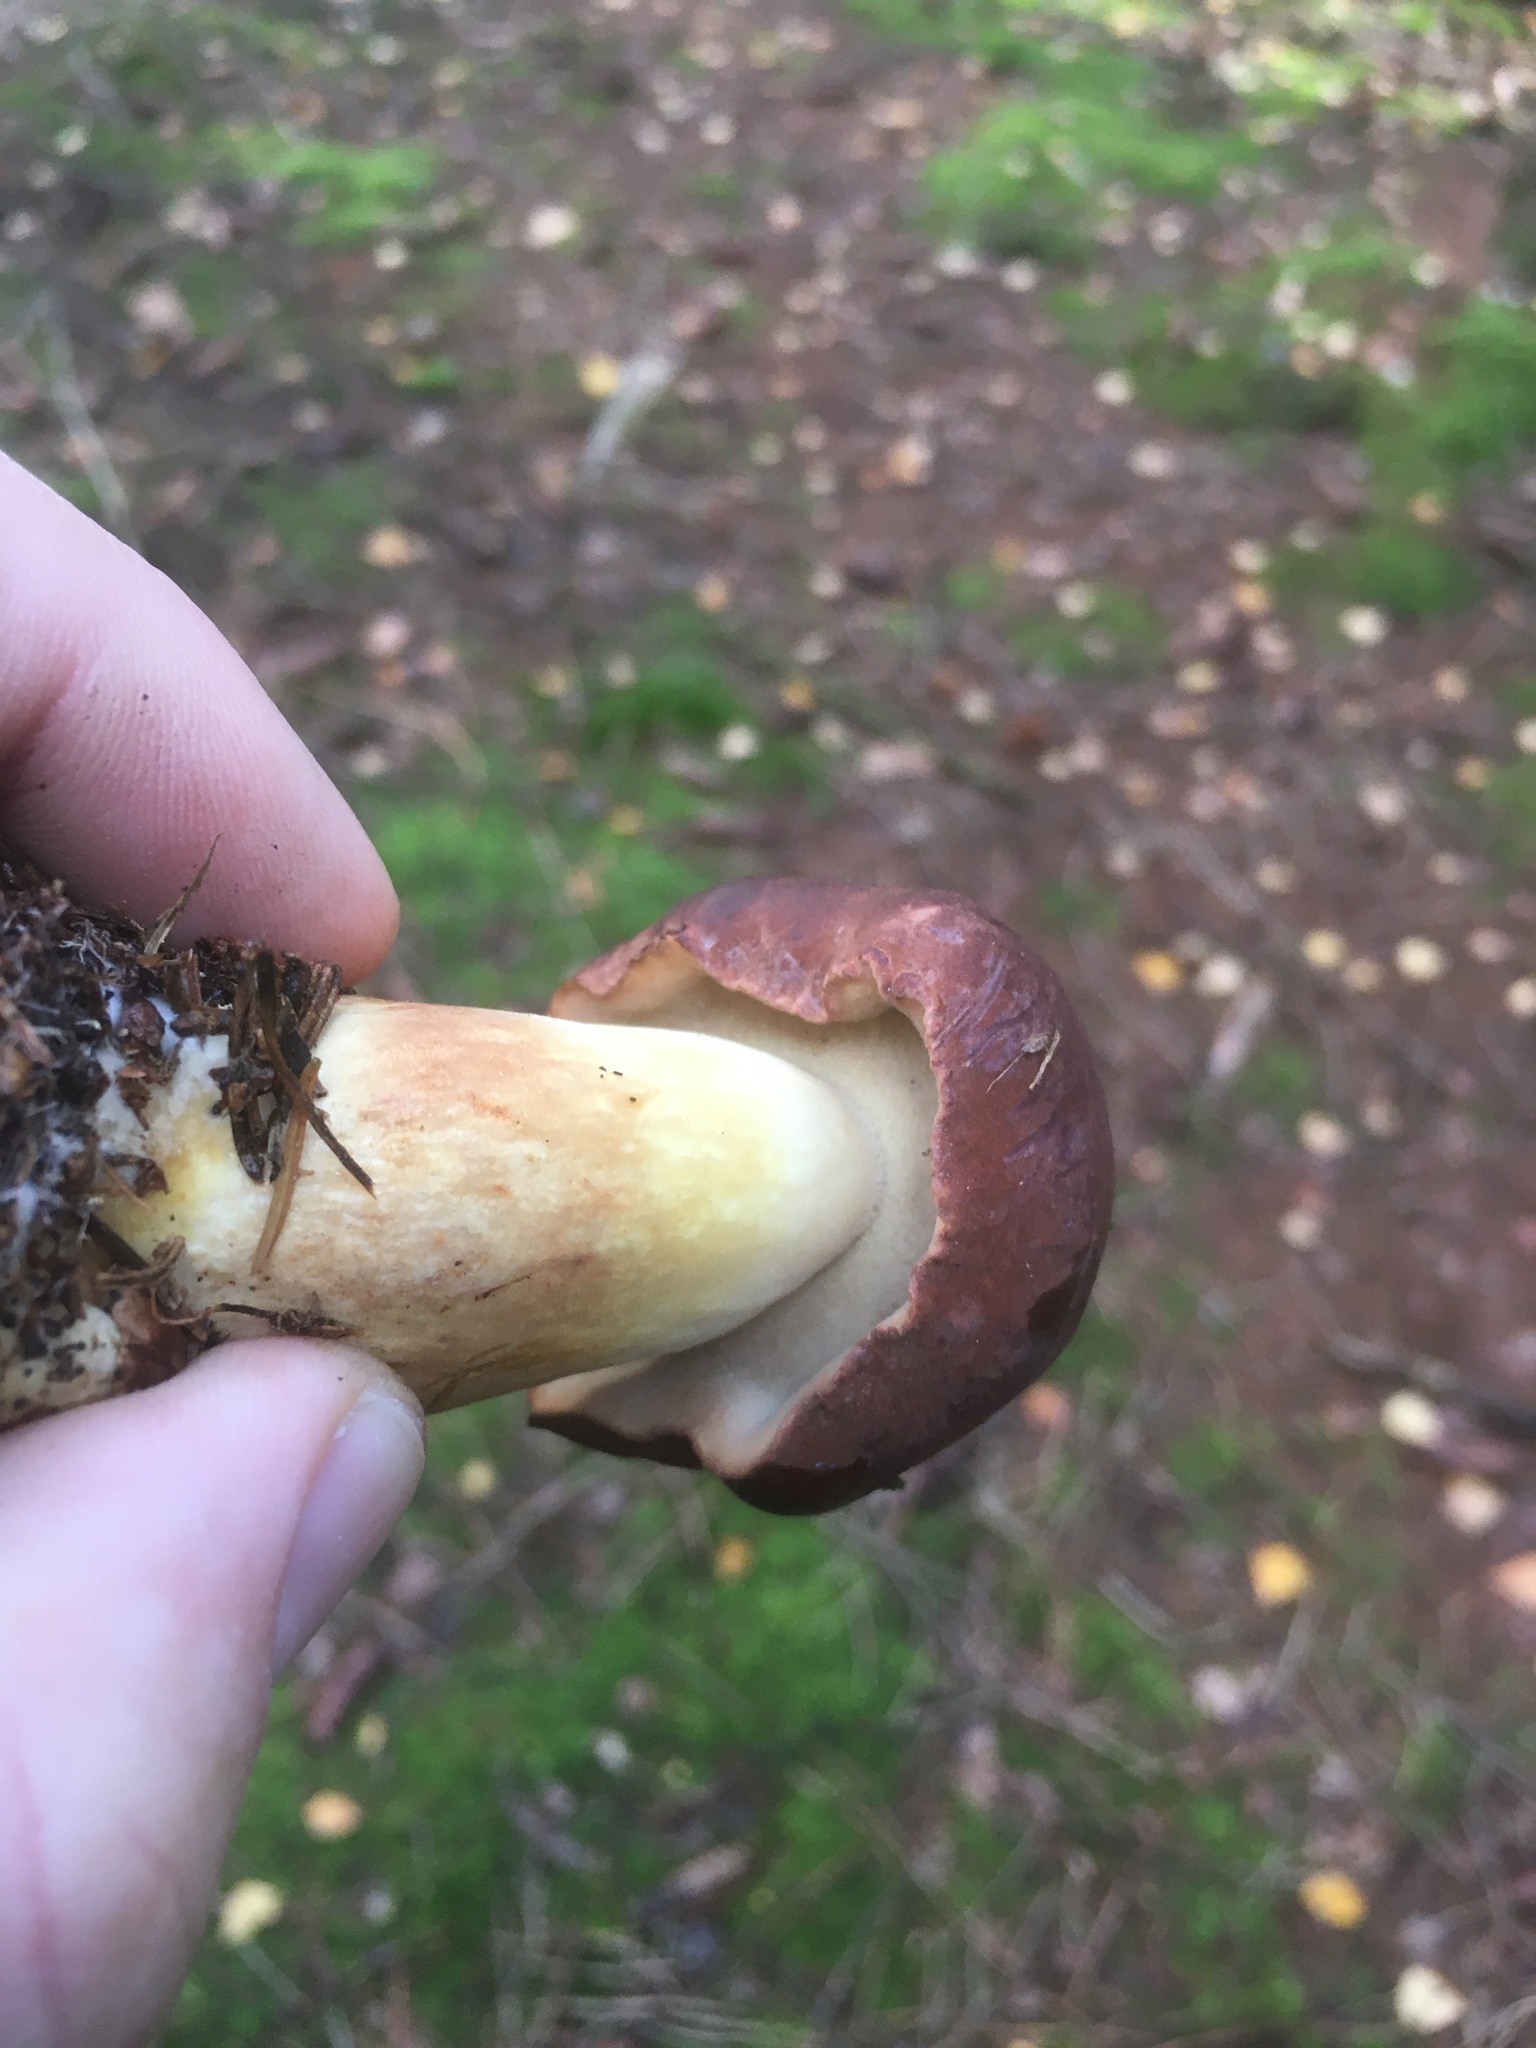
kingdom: Fungi
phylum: Basidiomycota
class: Agaricomycetes
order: Boletales
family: Boletaceae
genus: Imleria
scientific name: Imleria badia
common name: Bay bolete
